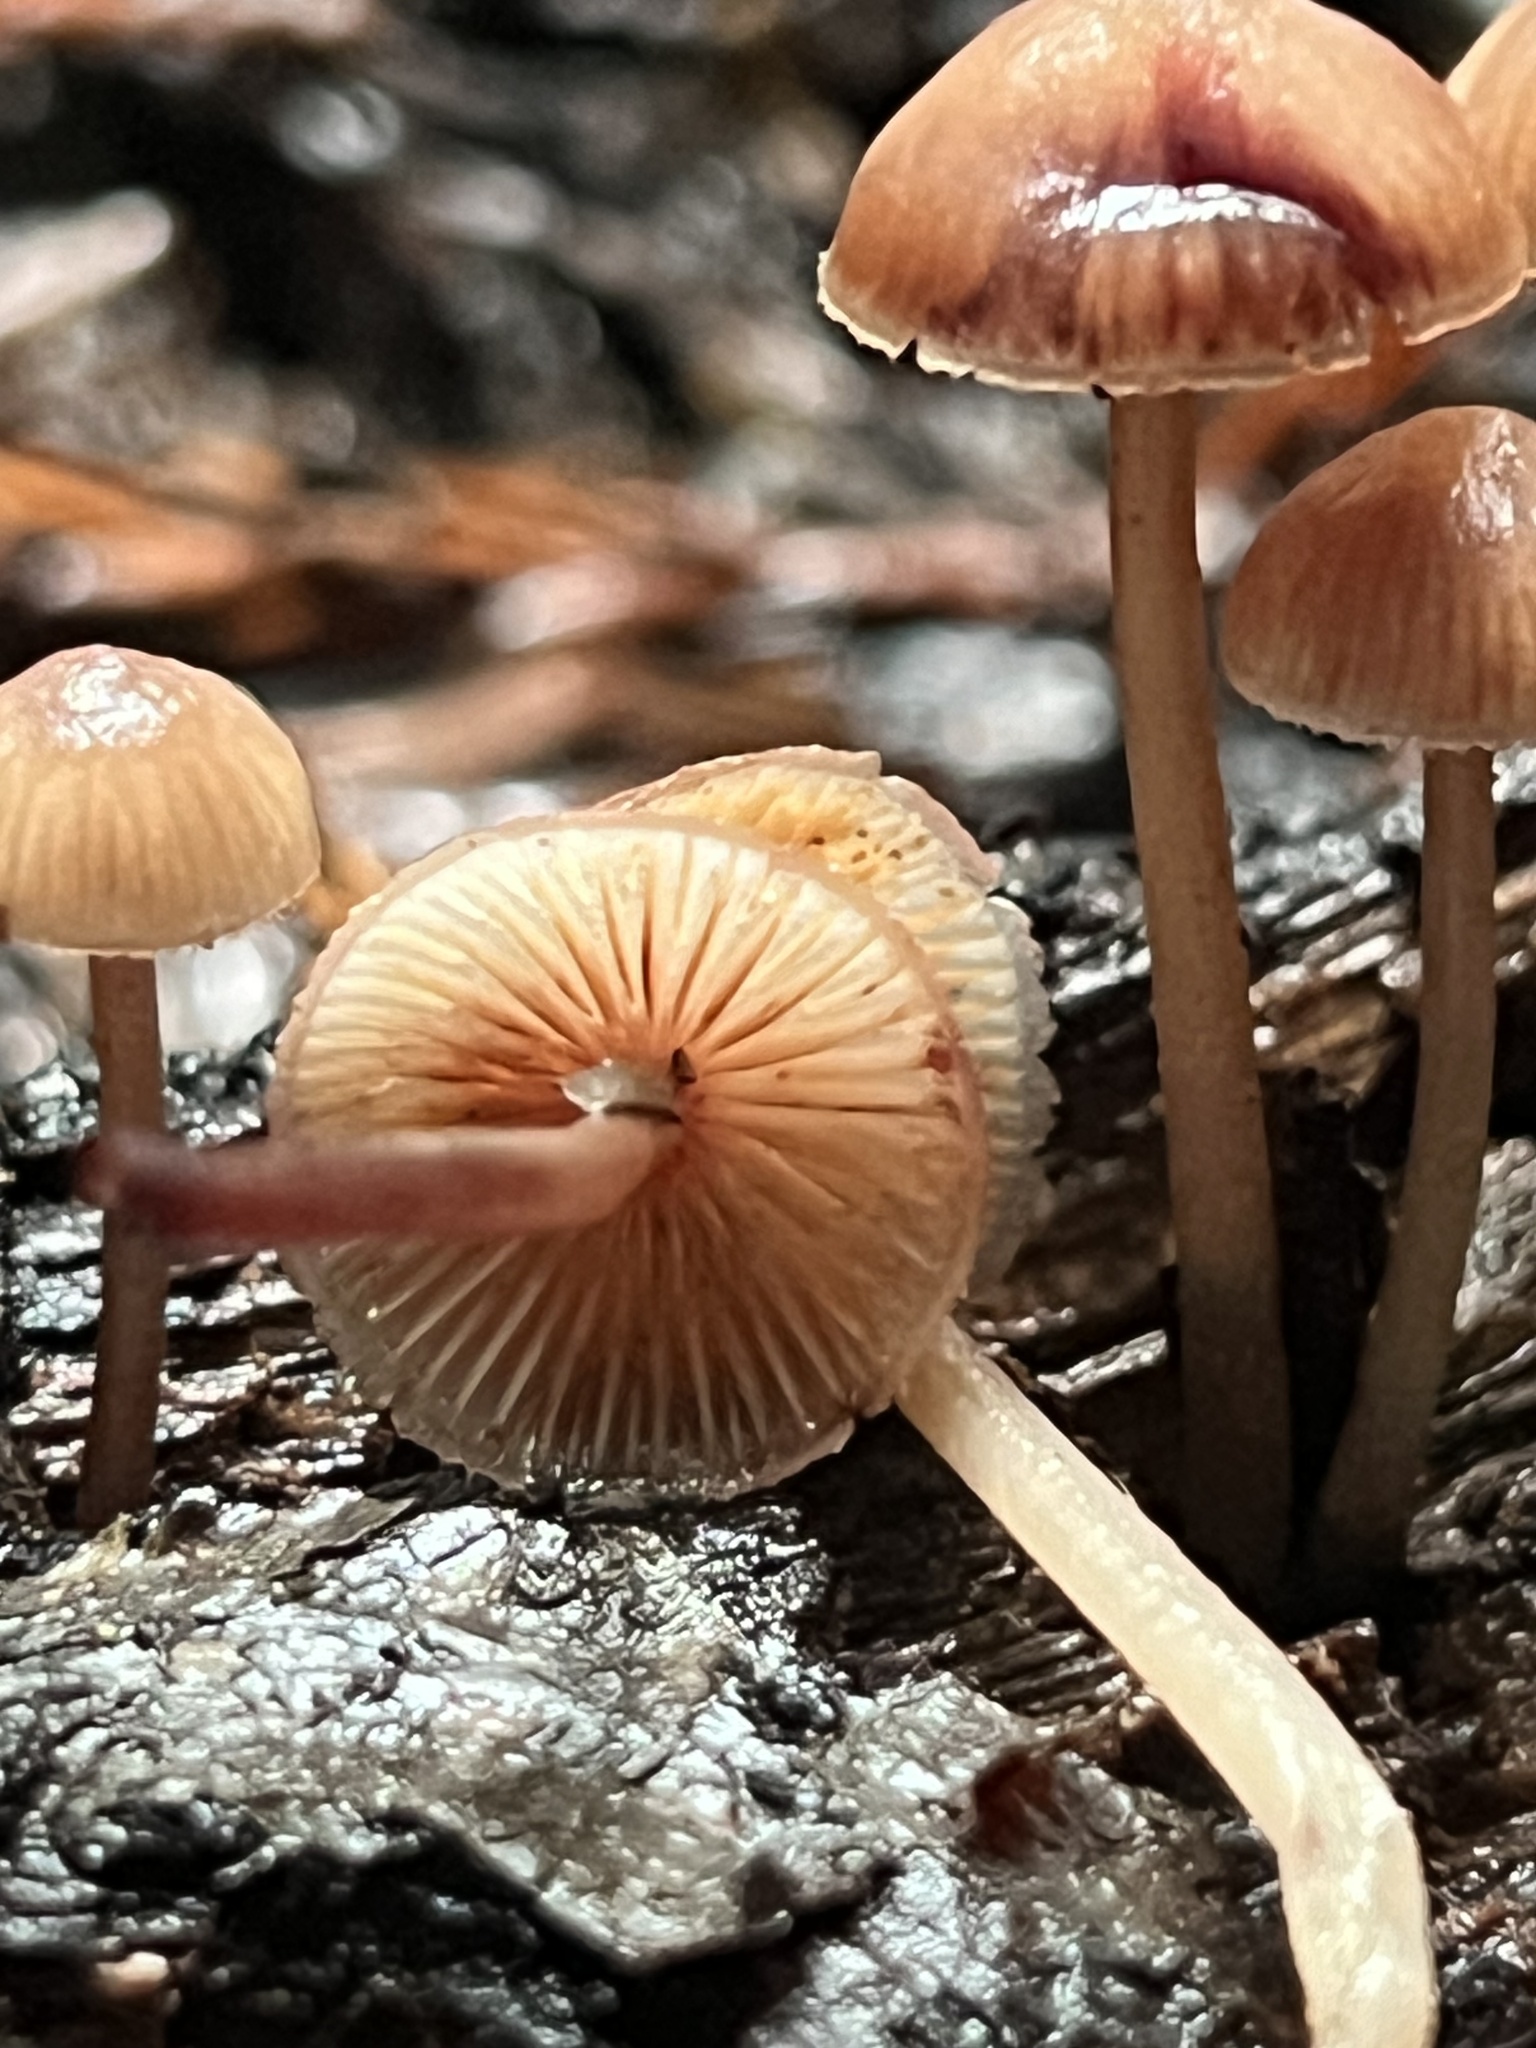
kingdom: Fungi
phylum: Basidiomycota
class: Agaricomycetes
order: Agaricales
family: Mycenaceae
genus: Mycena
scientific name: Mycena haematopus
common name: Burgundydrop bonnet
